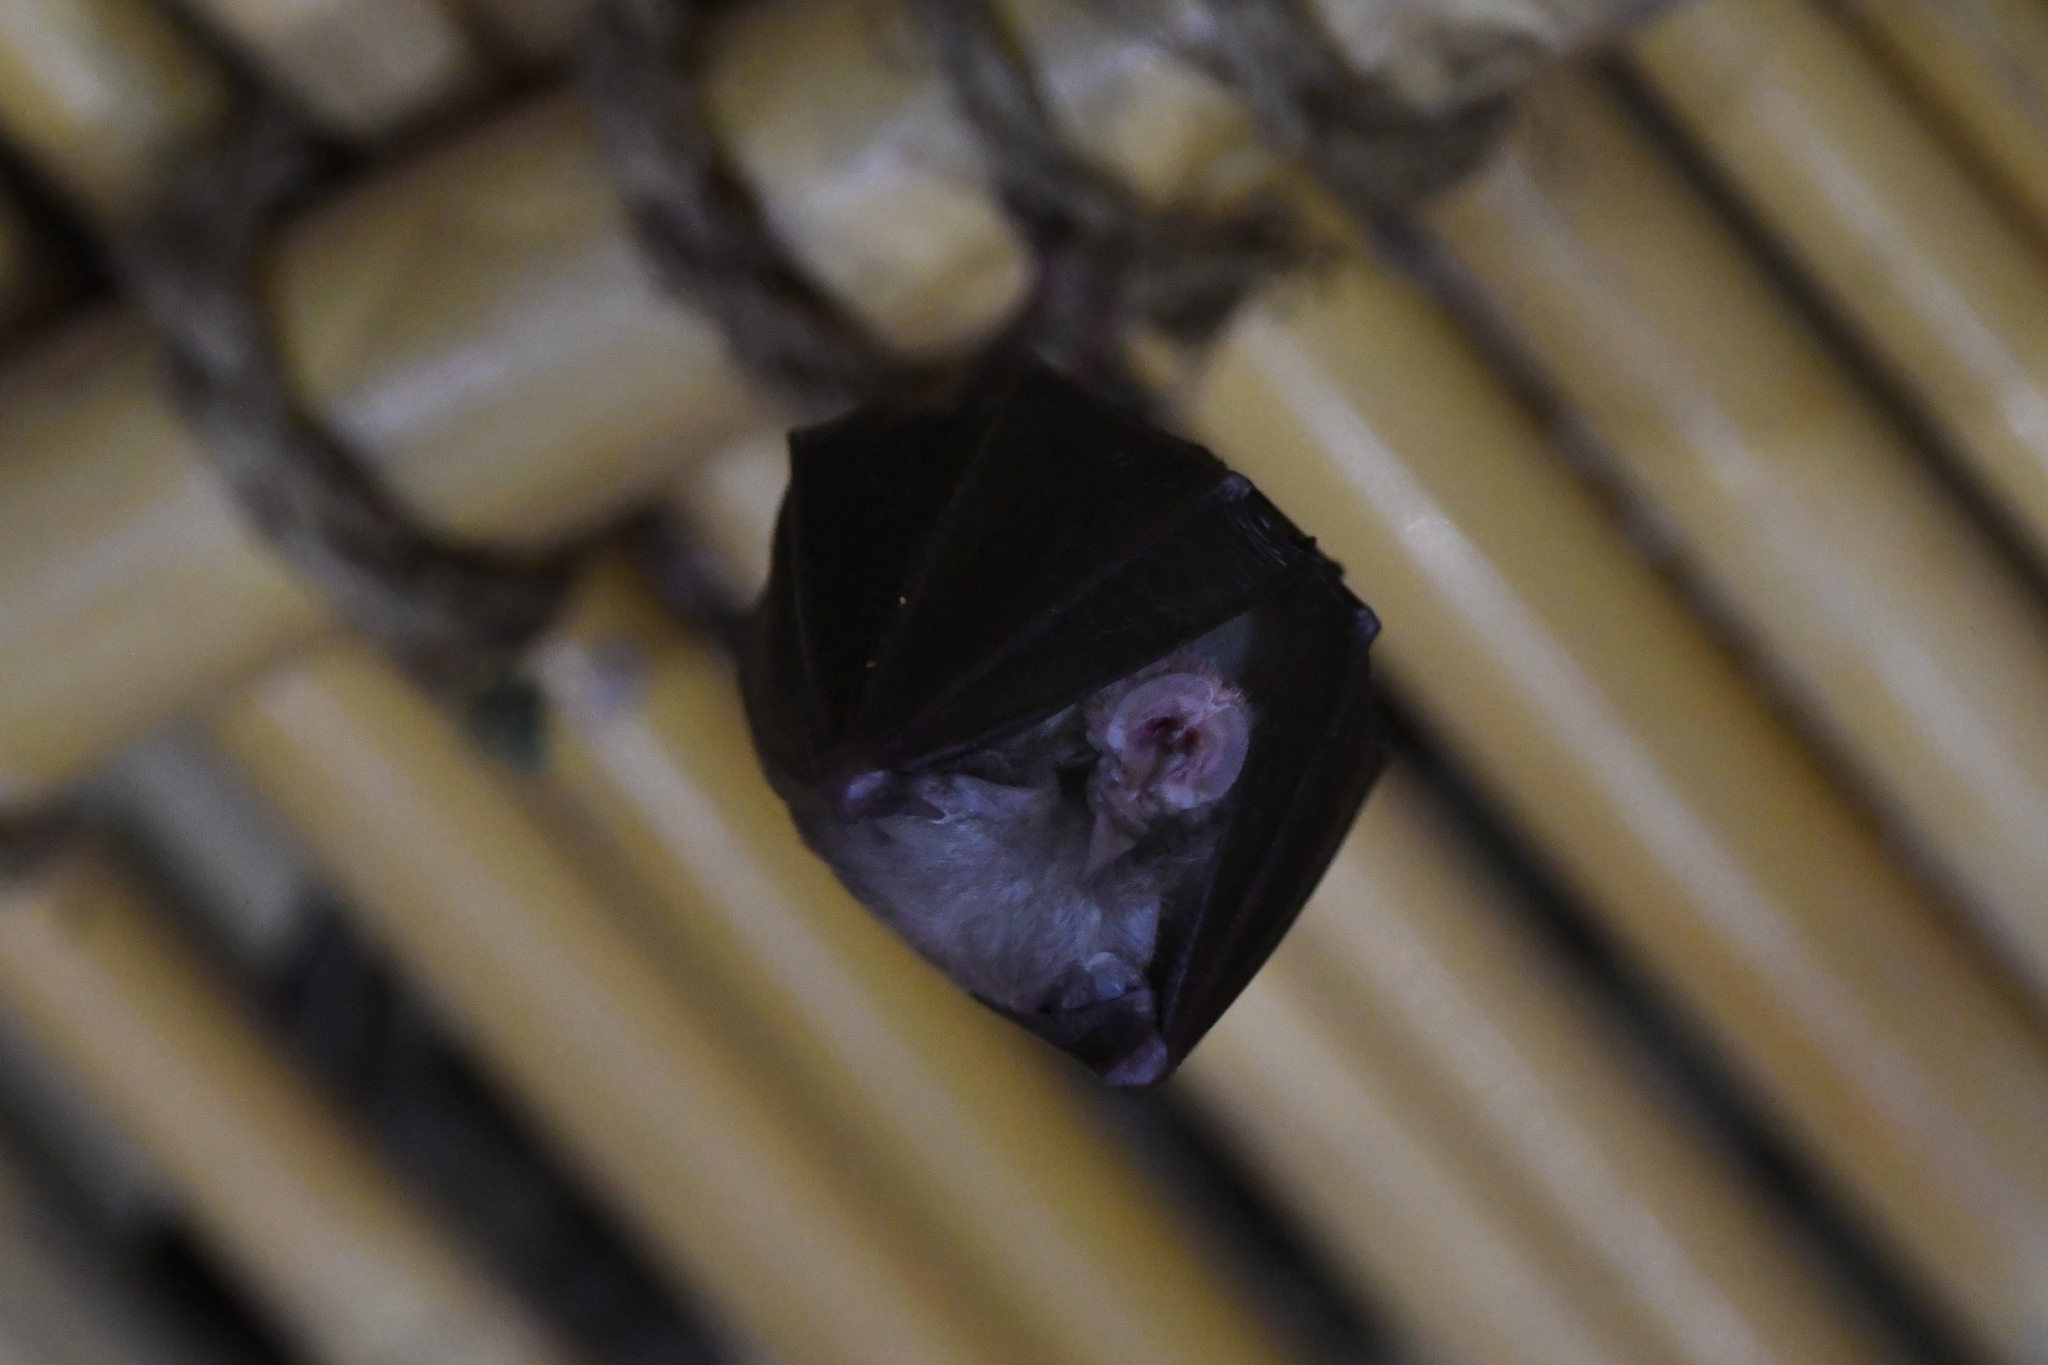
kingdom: Animalia
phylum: Chordata
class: Mammalia
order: Chiroptera
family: Rhinolophidae
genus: Rhinolophus
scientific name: Rhinolophus hipposideros
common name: Lesser horseshoe bat
